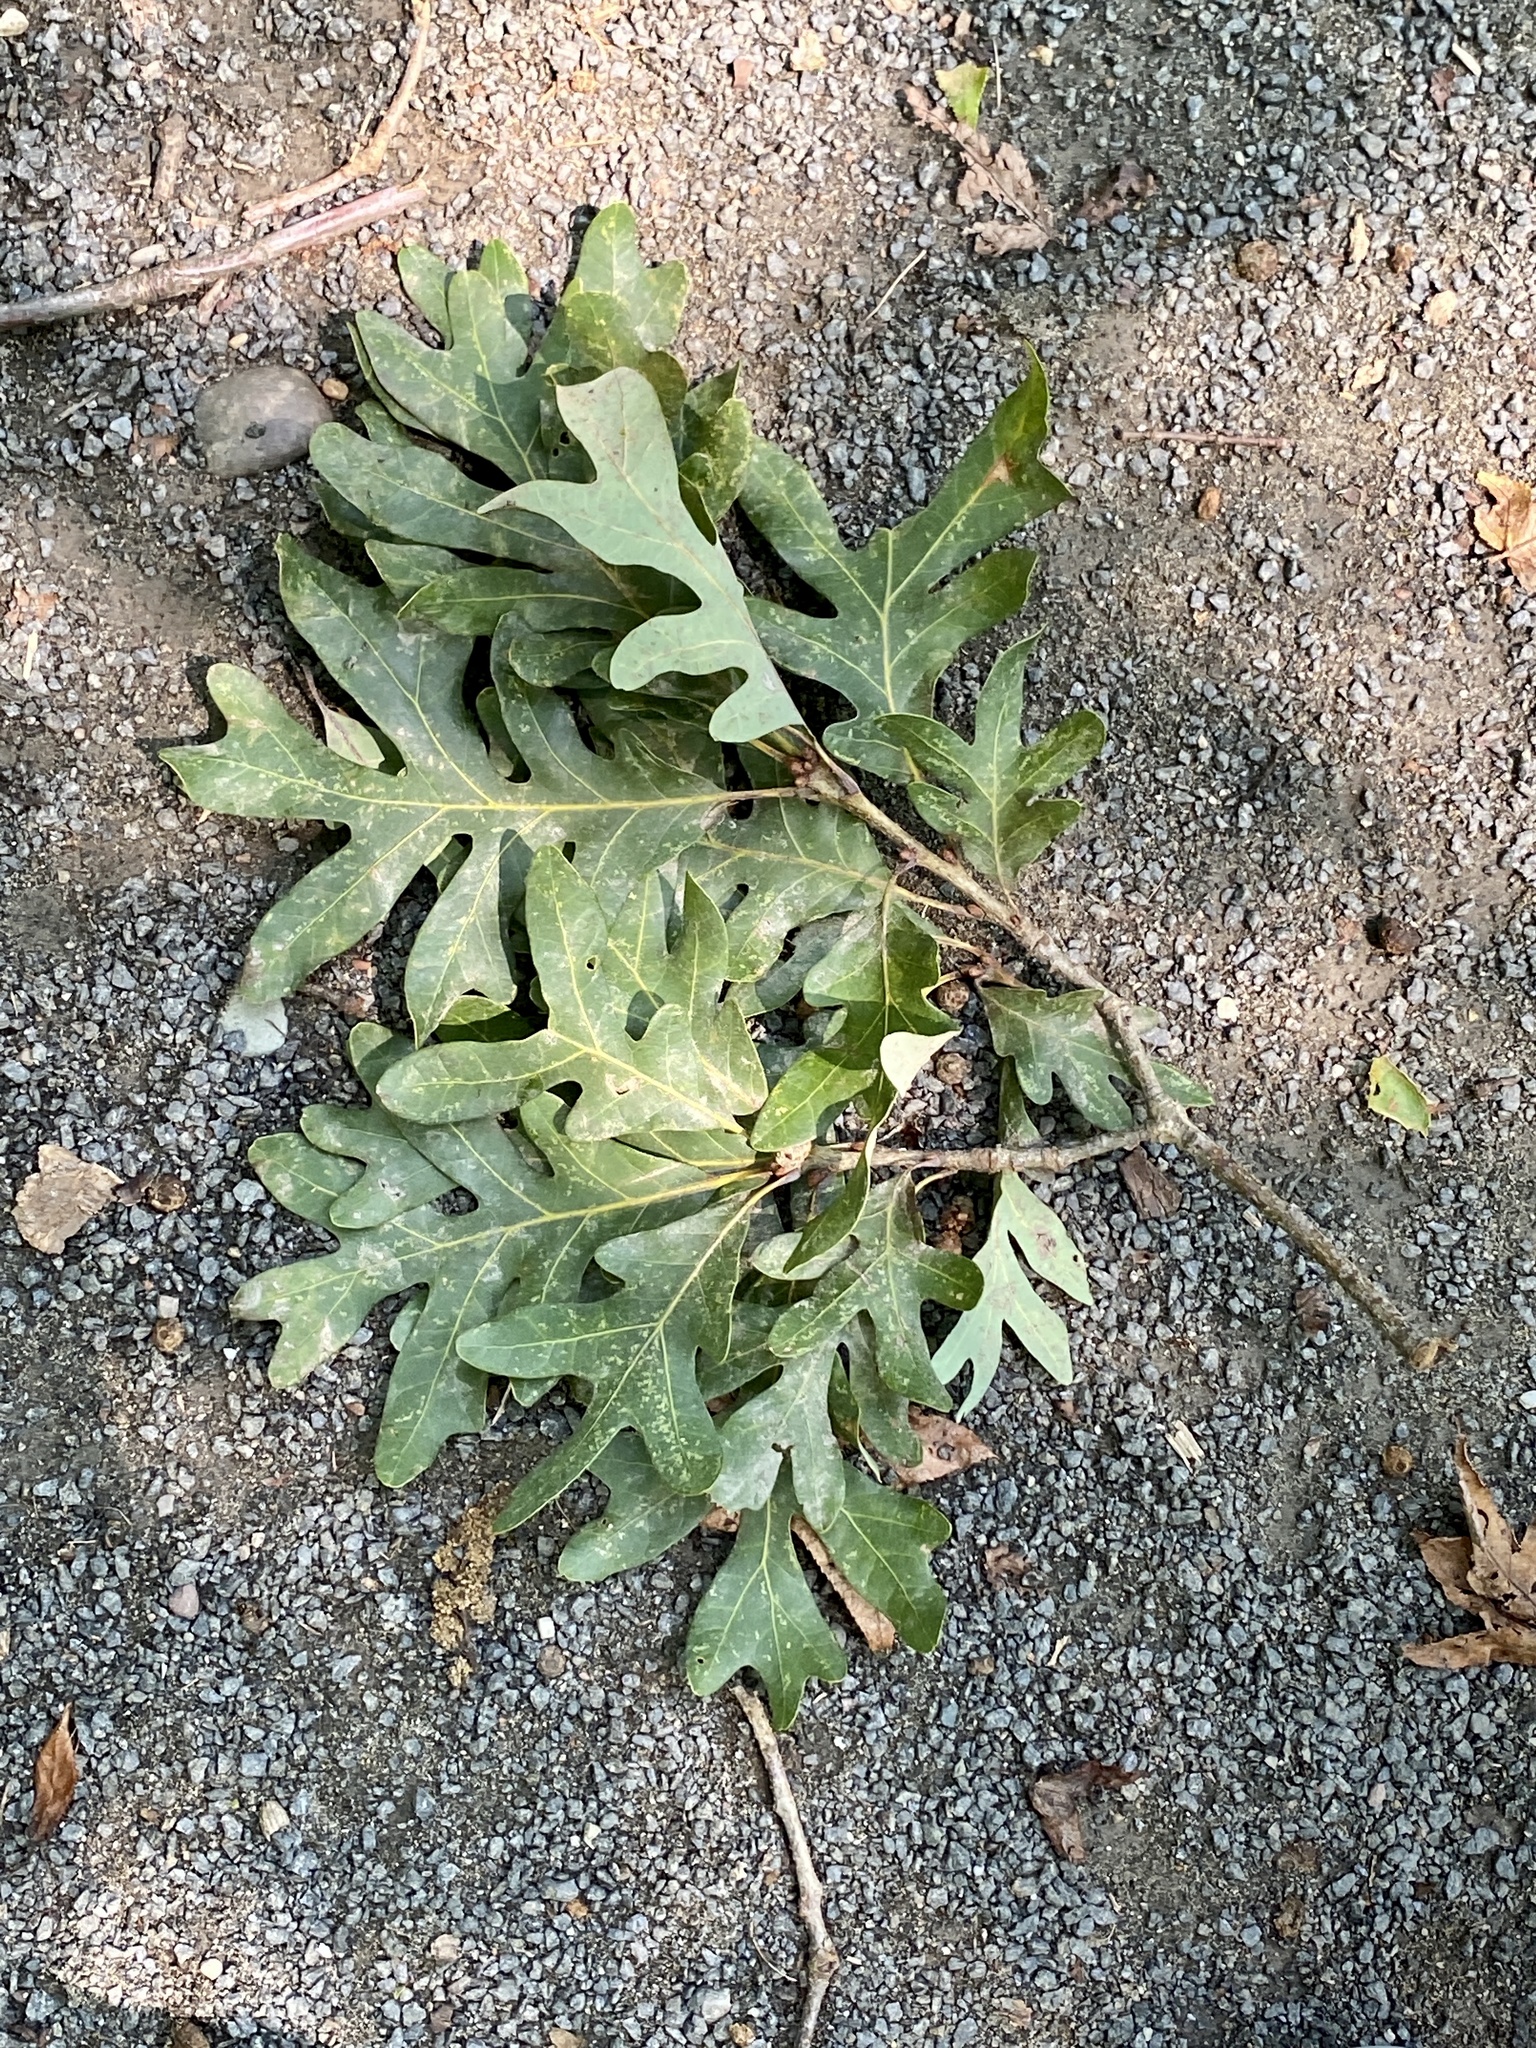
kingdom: Plantae
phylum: Tracheophyta
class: Magnoliopsida
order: Fagales
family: Fagaceae
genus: Quercus
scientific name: Quercus alba
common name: White oak
